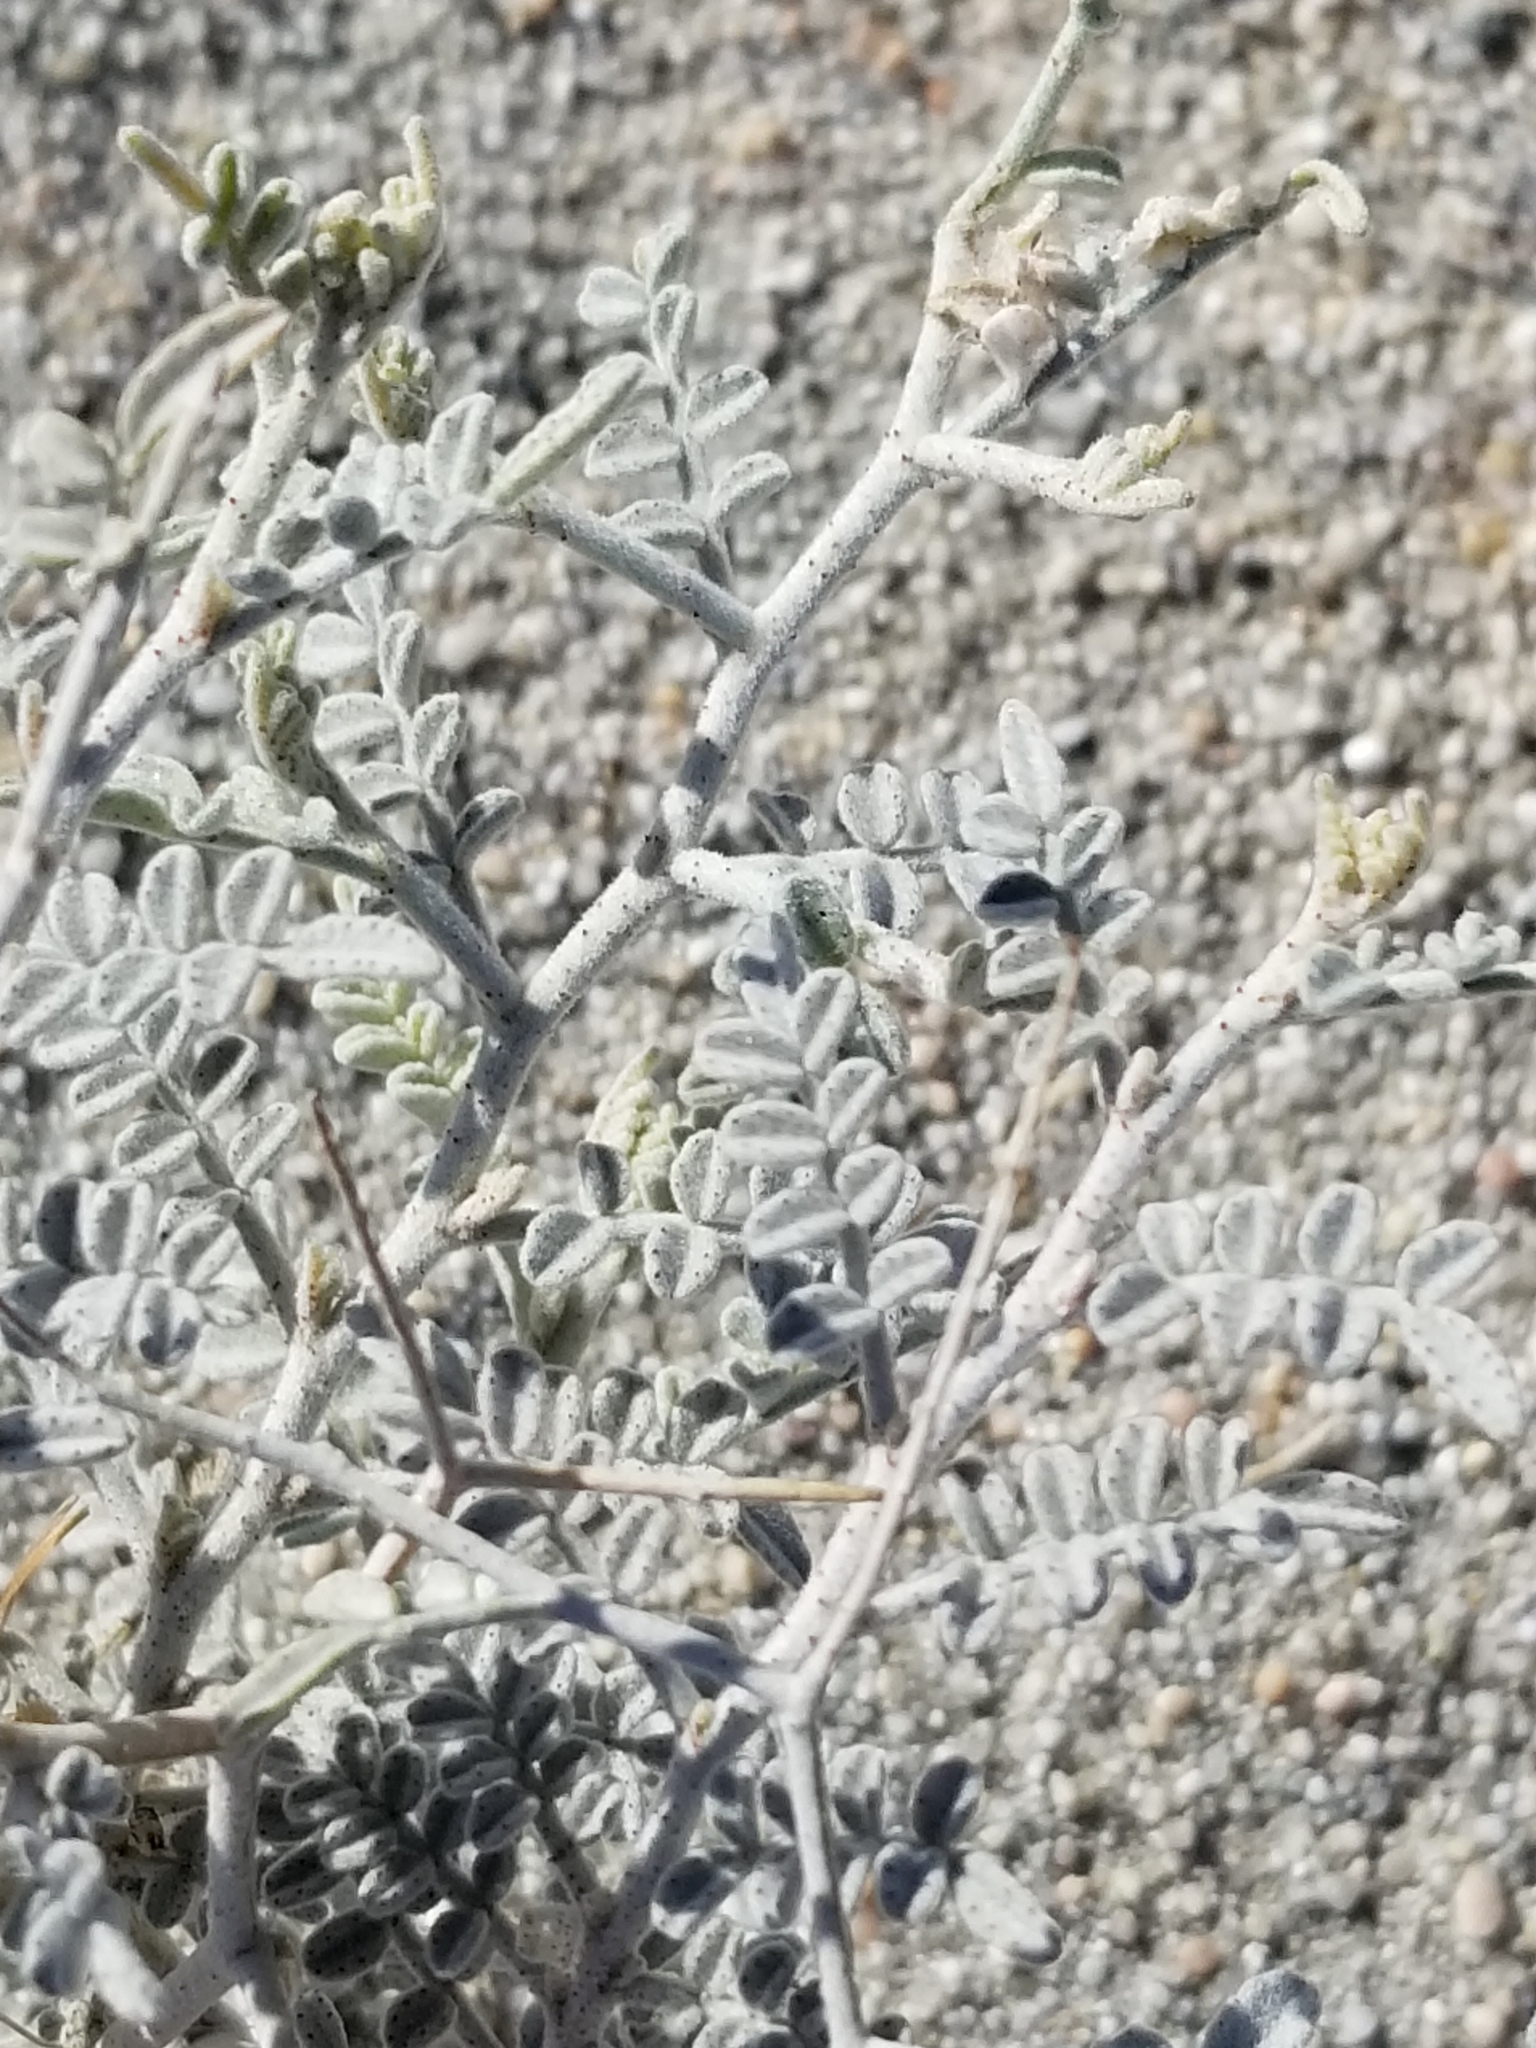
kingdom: Plantae
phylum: Tracheophyta
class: Magnoliopsida
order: Fabales
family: Fabaceae
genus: Psorothamnus
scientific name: Psorothamnus emoryi
